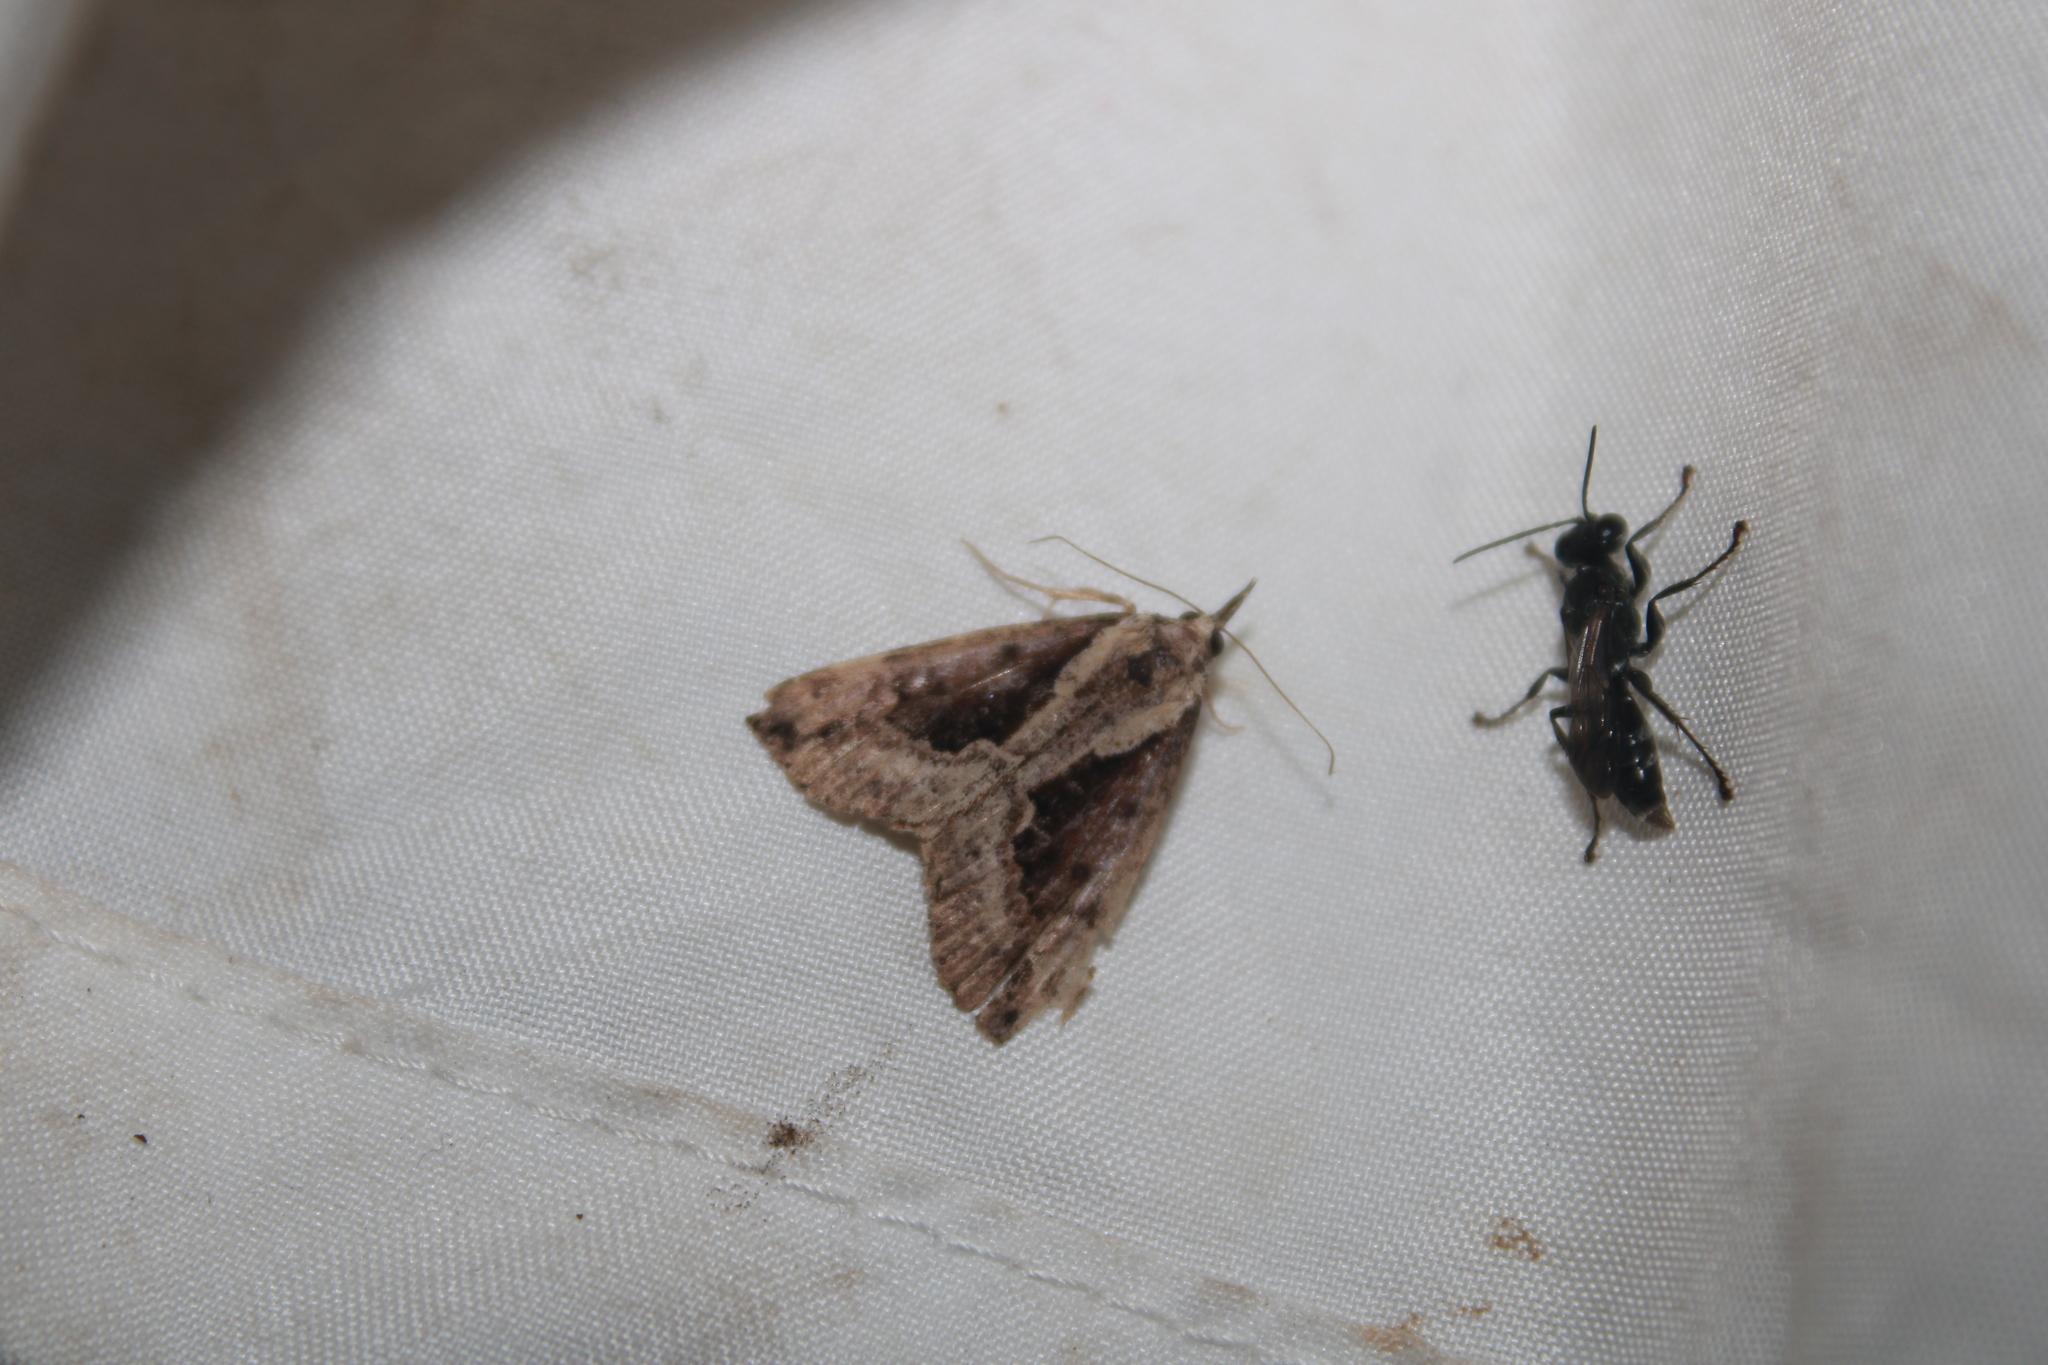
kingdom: Animalia
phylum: Arthropoda
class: Insecta
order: Lepidoptera
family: Erebidae
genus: Hypena
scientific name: Hypena baltimoralis
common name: Baltimore snout
